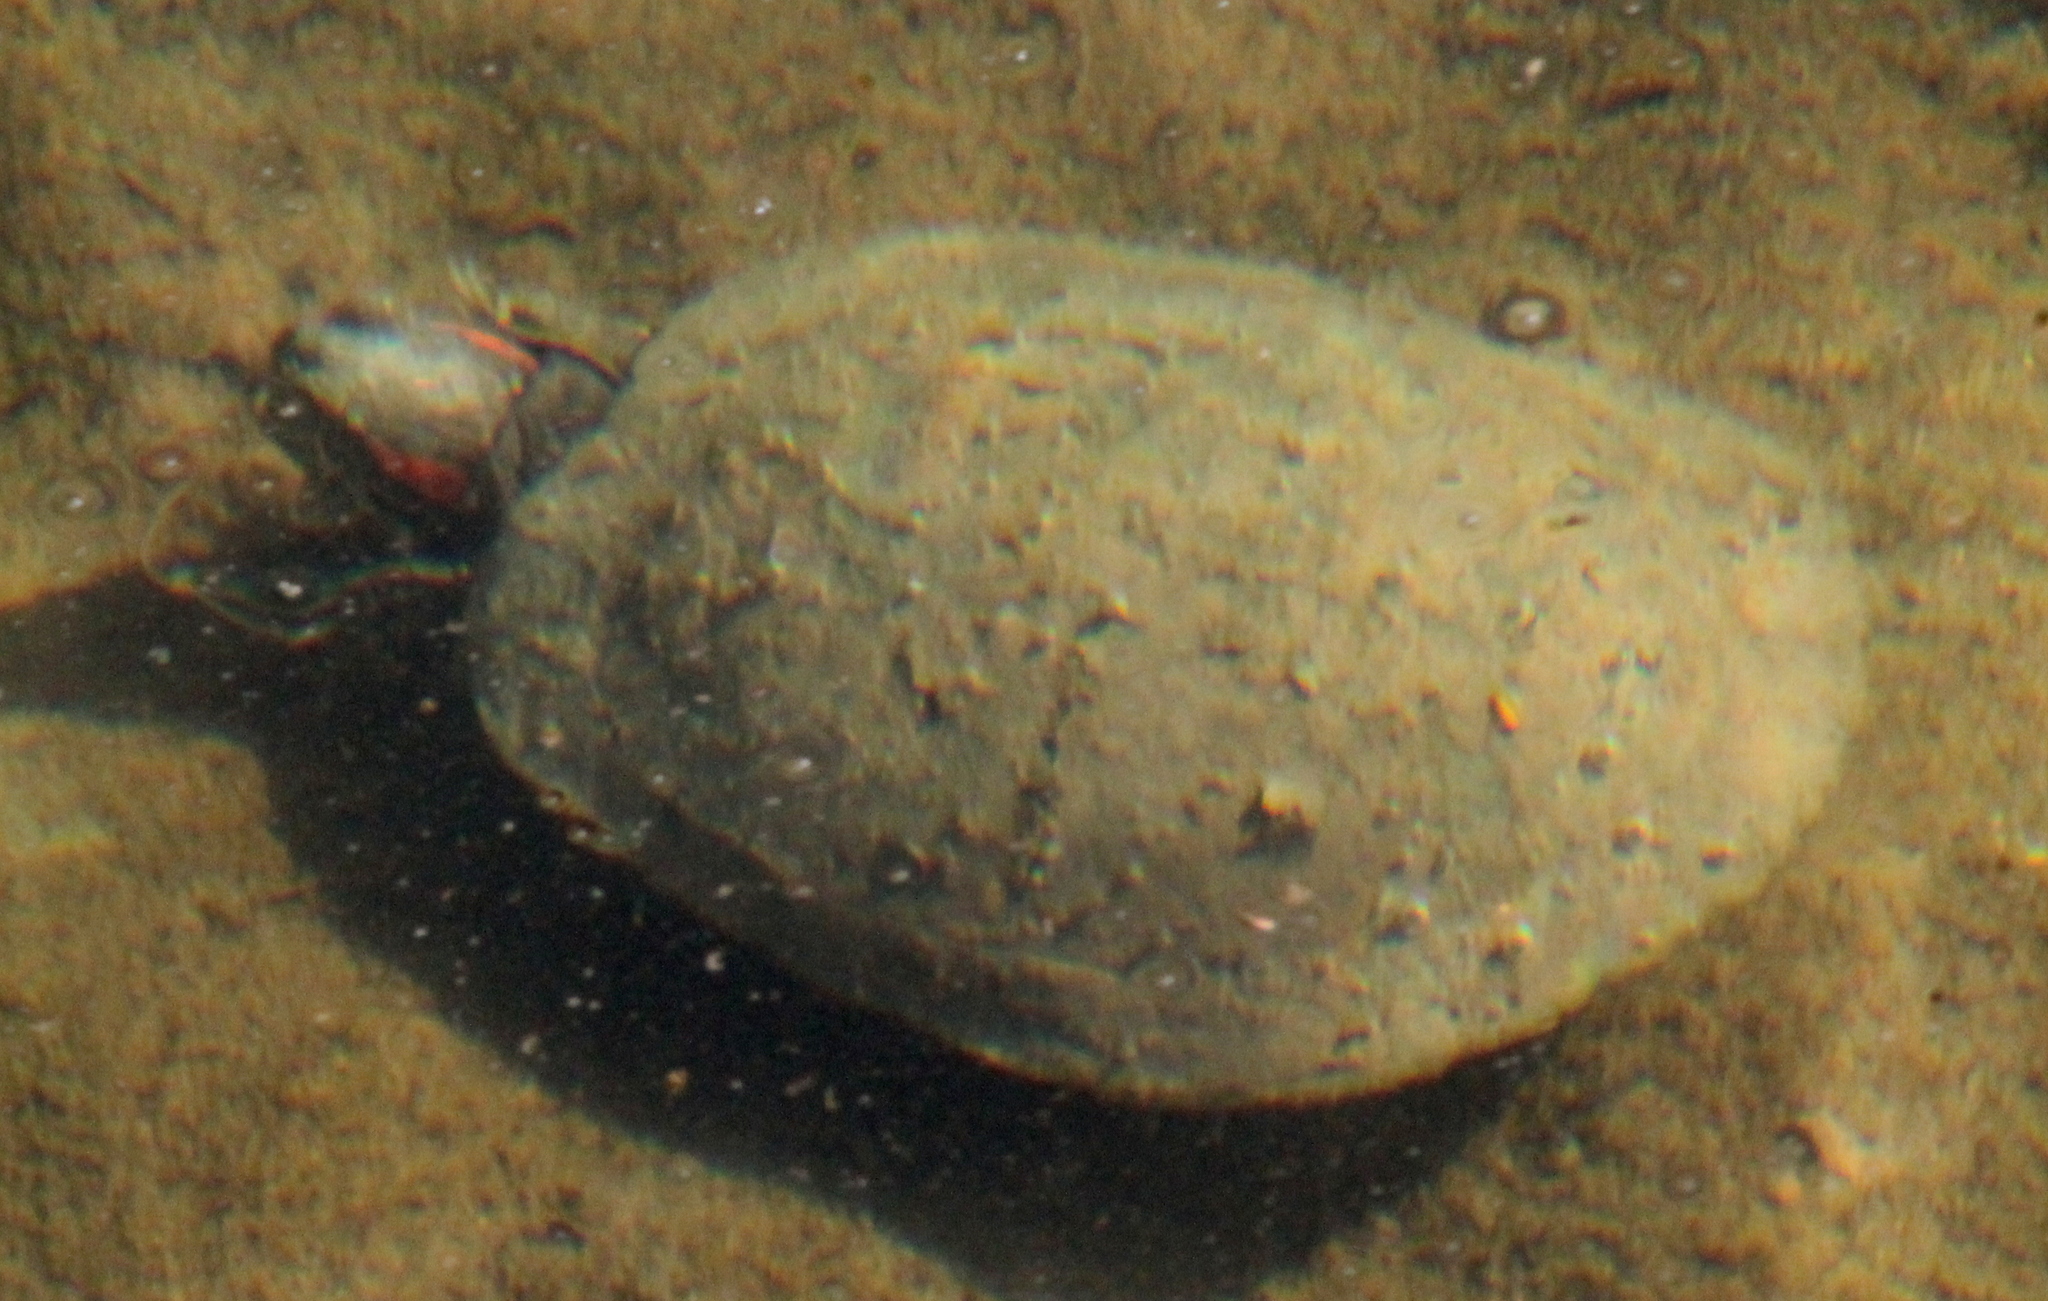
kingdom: Animalia
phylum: Chordata
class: Testudines
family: Emydidae
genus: Trachemys
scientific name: Trachemys scripta
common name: Slider
